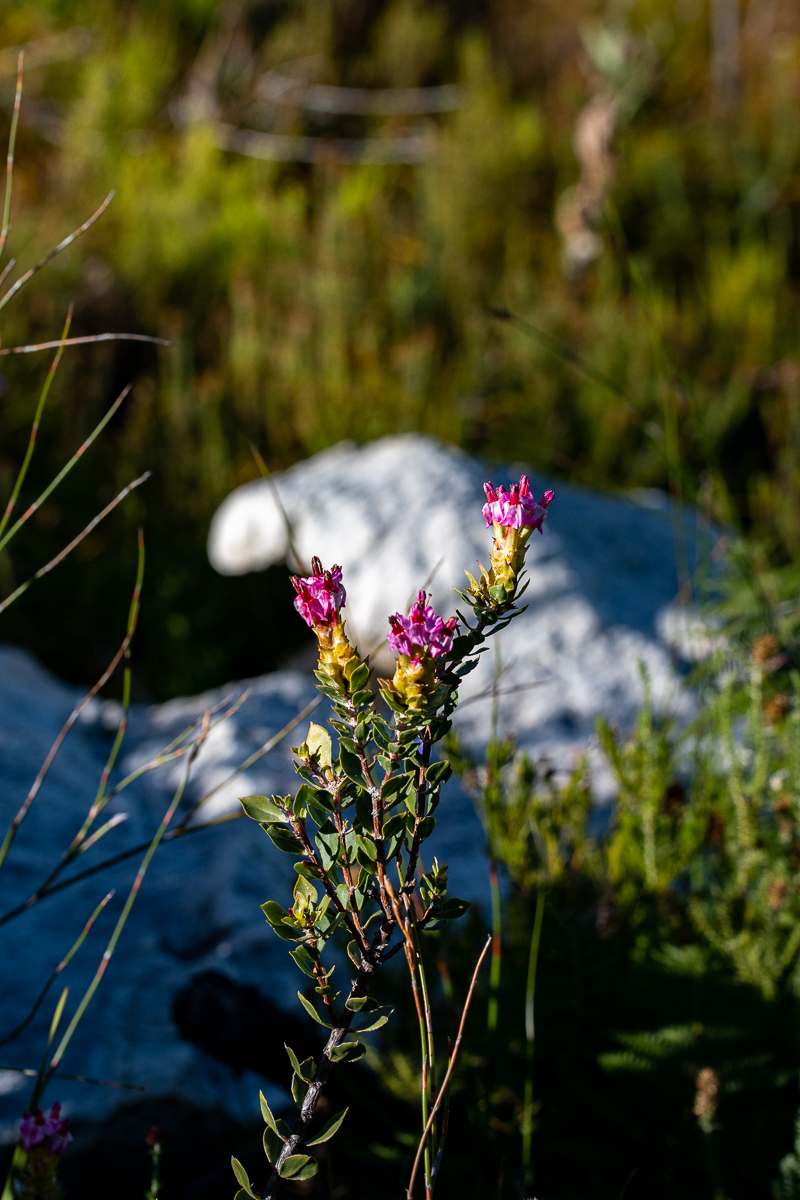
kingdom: Plantae
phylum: Tracheophyta
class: Magnoliopsida
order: Myrtales
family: Penaeaceae
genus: Saltera
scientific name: Saltera sarcocolla
